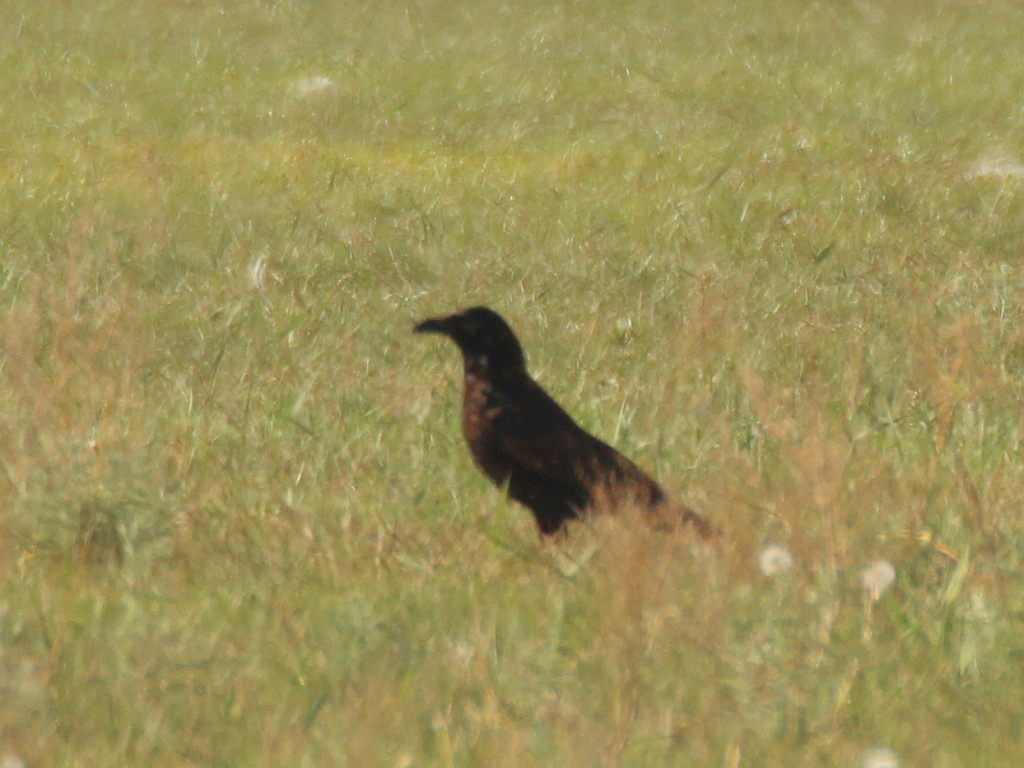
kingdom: Animalia
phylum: Chordata
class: Aves
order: Passeriformes
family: Corvidae
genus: Corvus
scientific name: Corvus corone
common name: Carrion crow
